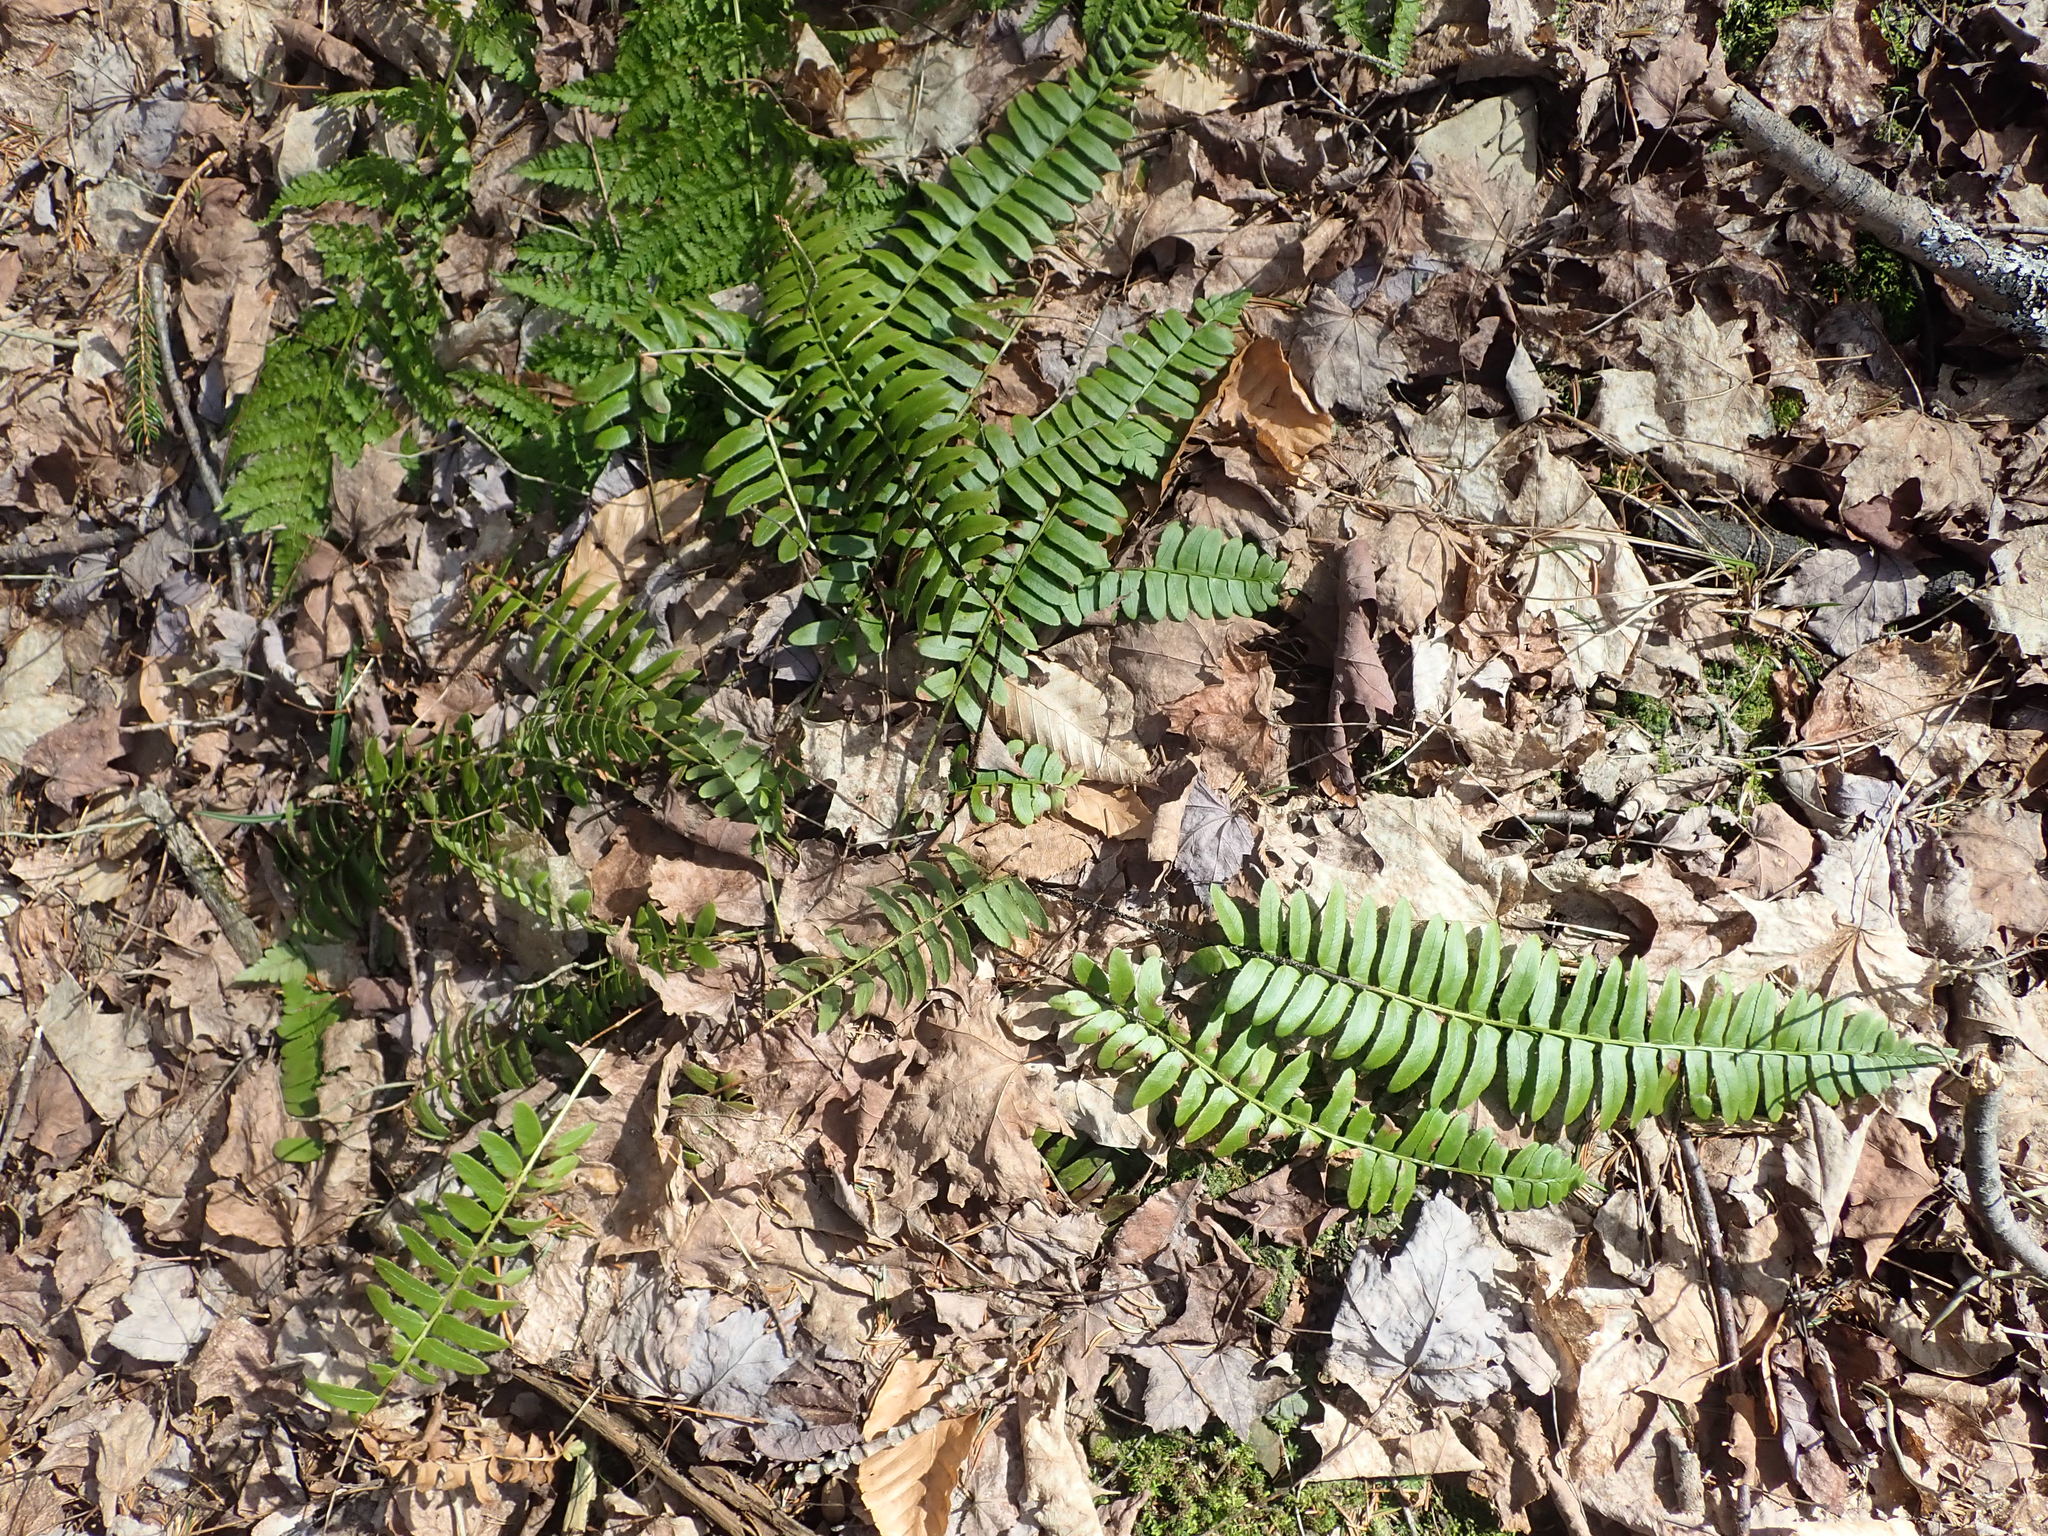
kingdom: Plantae
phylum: Tracheophyta
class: Polypodiopsida
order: Polypodiales
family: Dryopteridaceae
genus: Polystichum
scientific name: Polystichum acrostichoides
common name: Christmas fern
